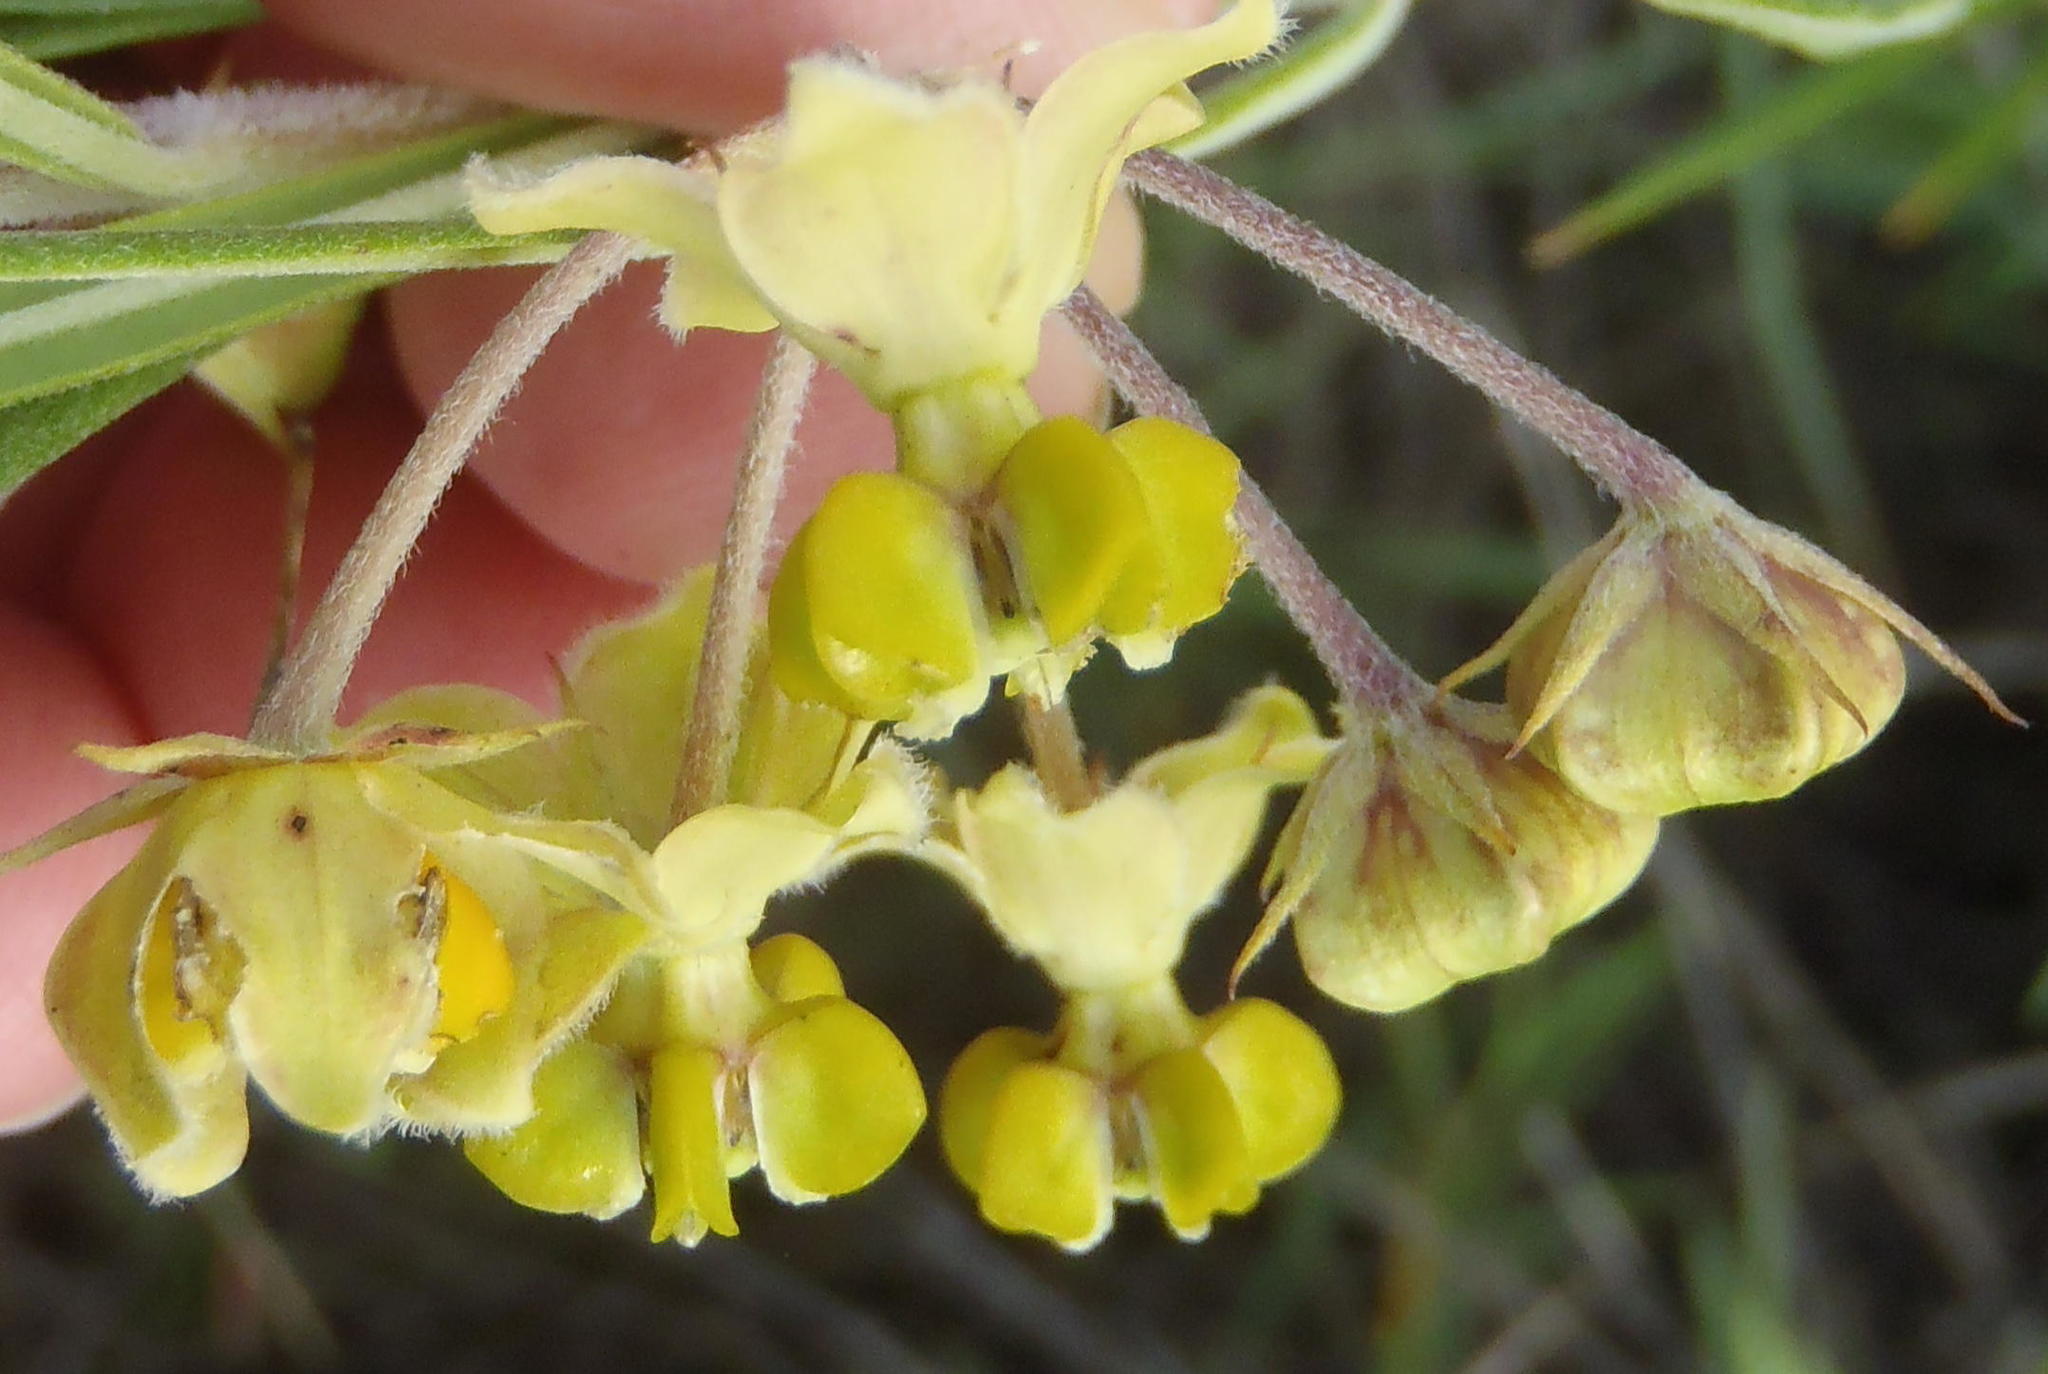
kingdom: Plantae
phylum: Tracheophyta
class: Magnoliopsida
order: Gentianales
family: Apocynaceae
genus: Gomphocarpus
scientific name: Gomphocarpus tomentosus
